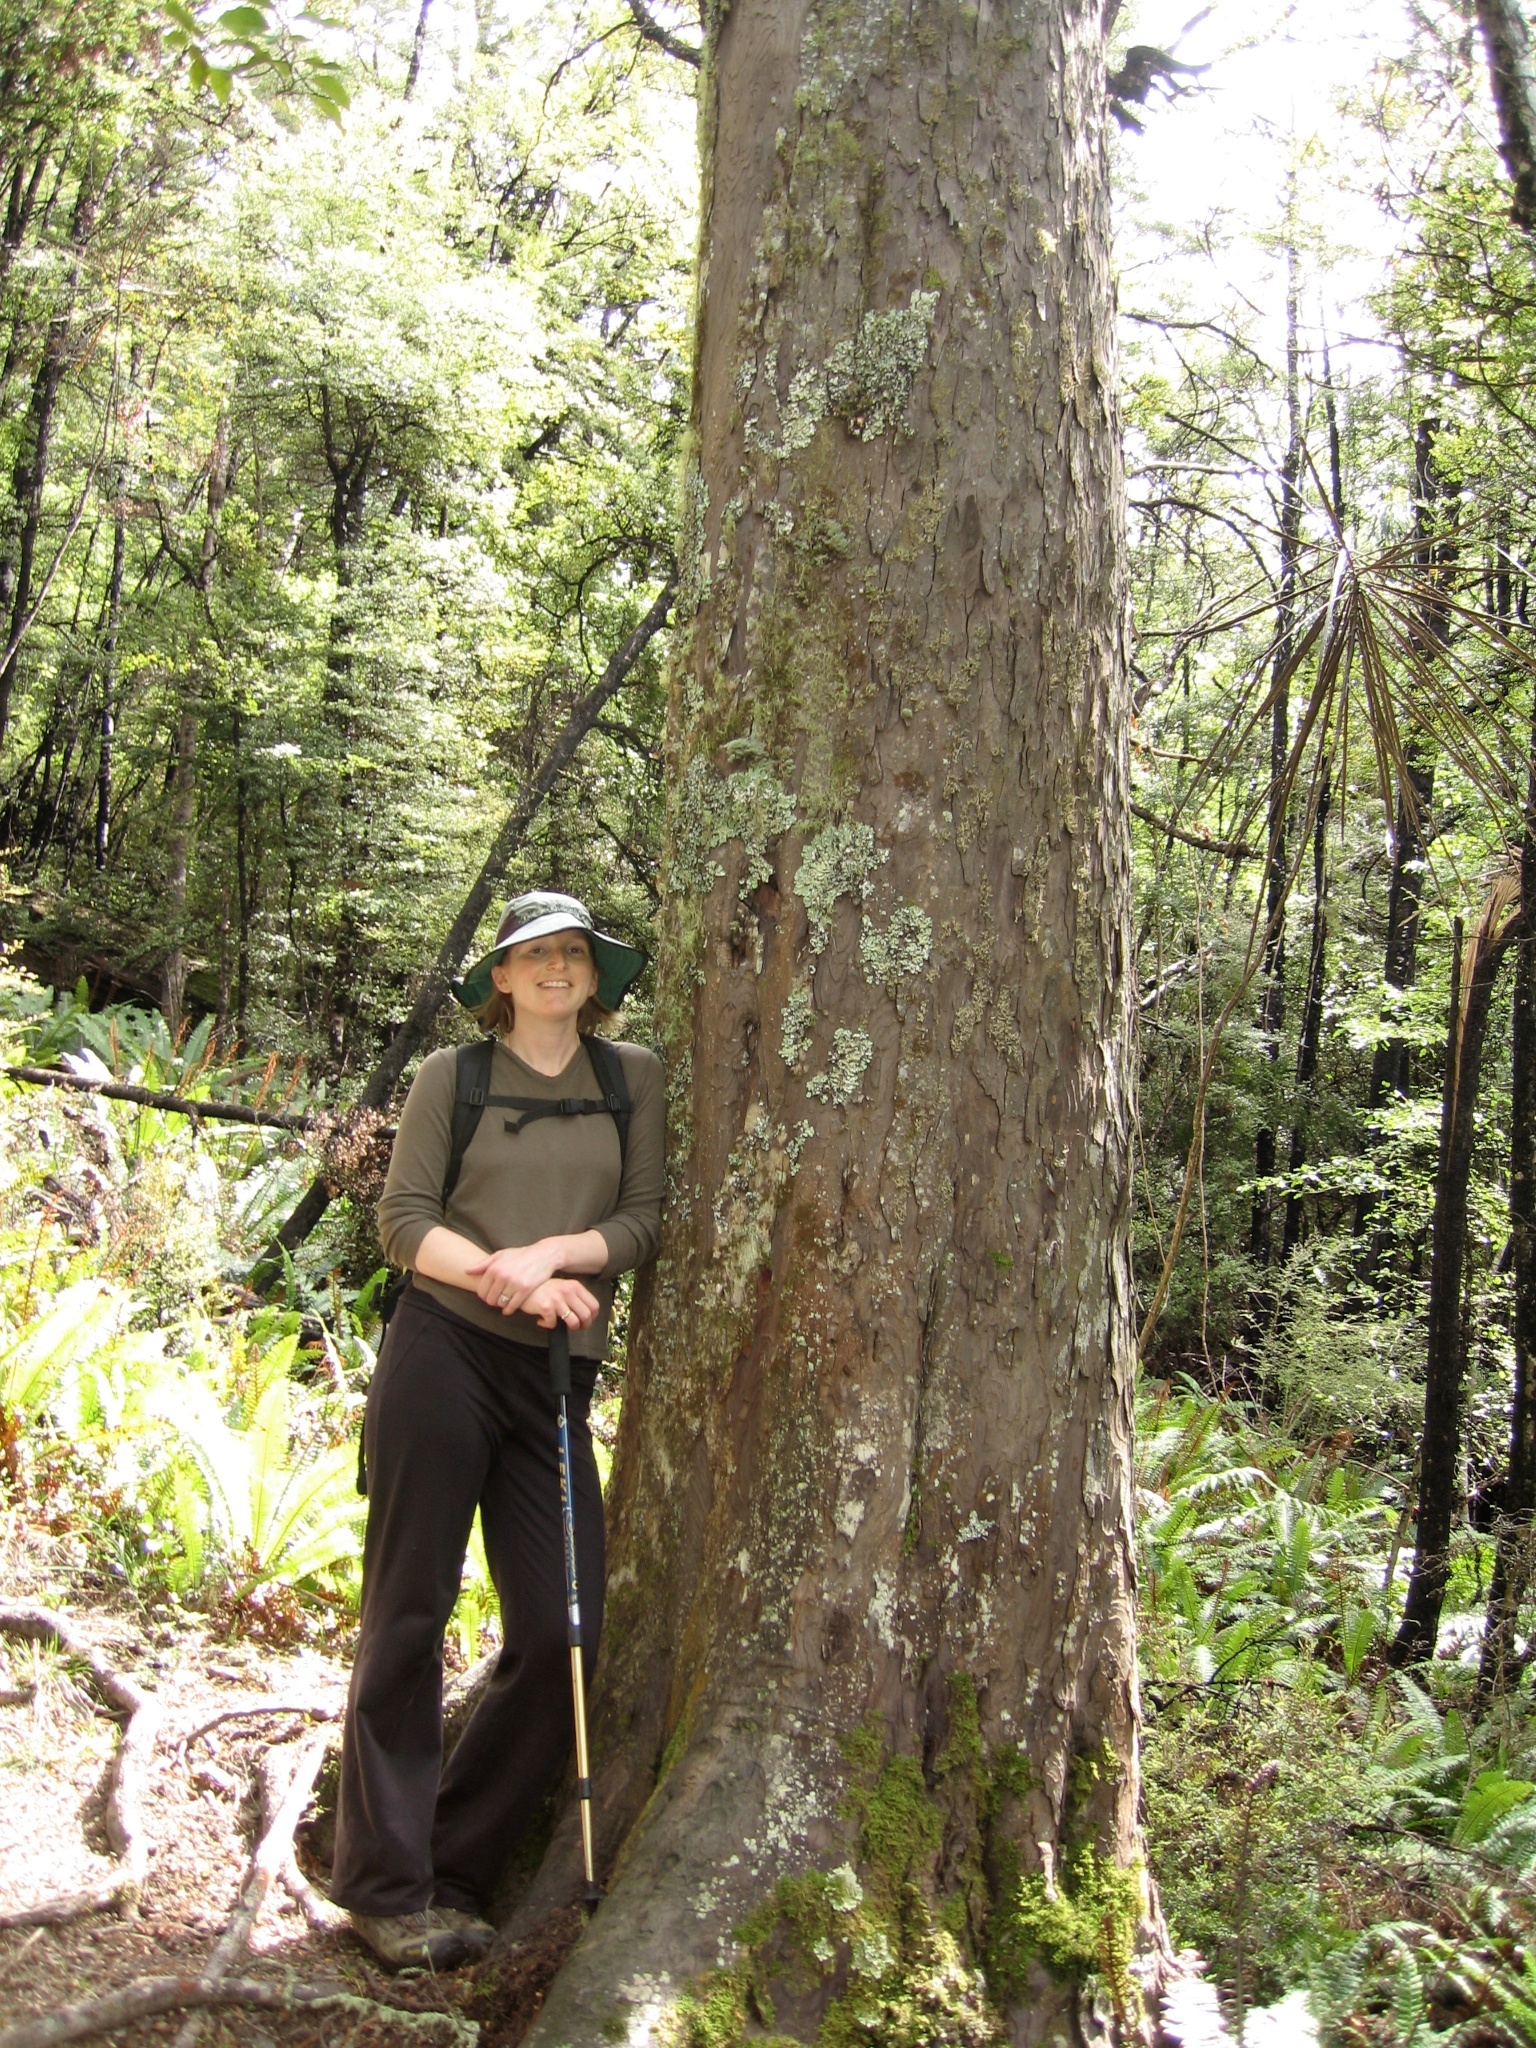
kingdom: Plantae
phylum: Tracheophyta
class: Pinopsida
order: Pinales
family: Podocarpaceae
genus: Dacrydium
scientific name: Dacrydium cupressinum
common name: Red pine
